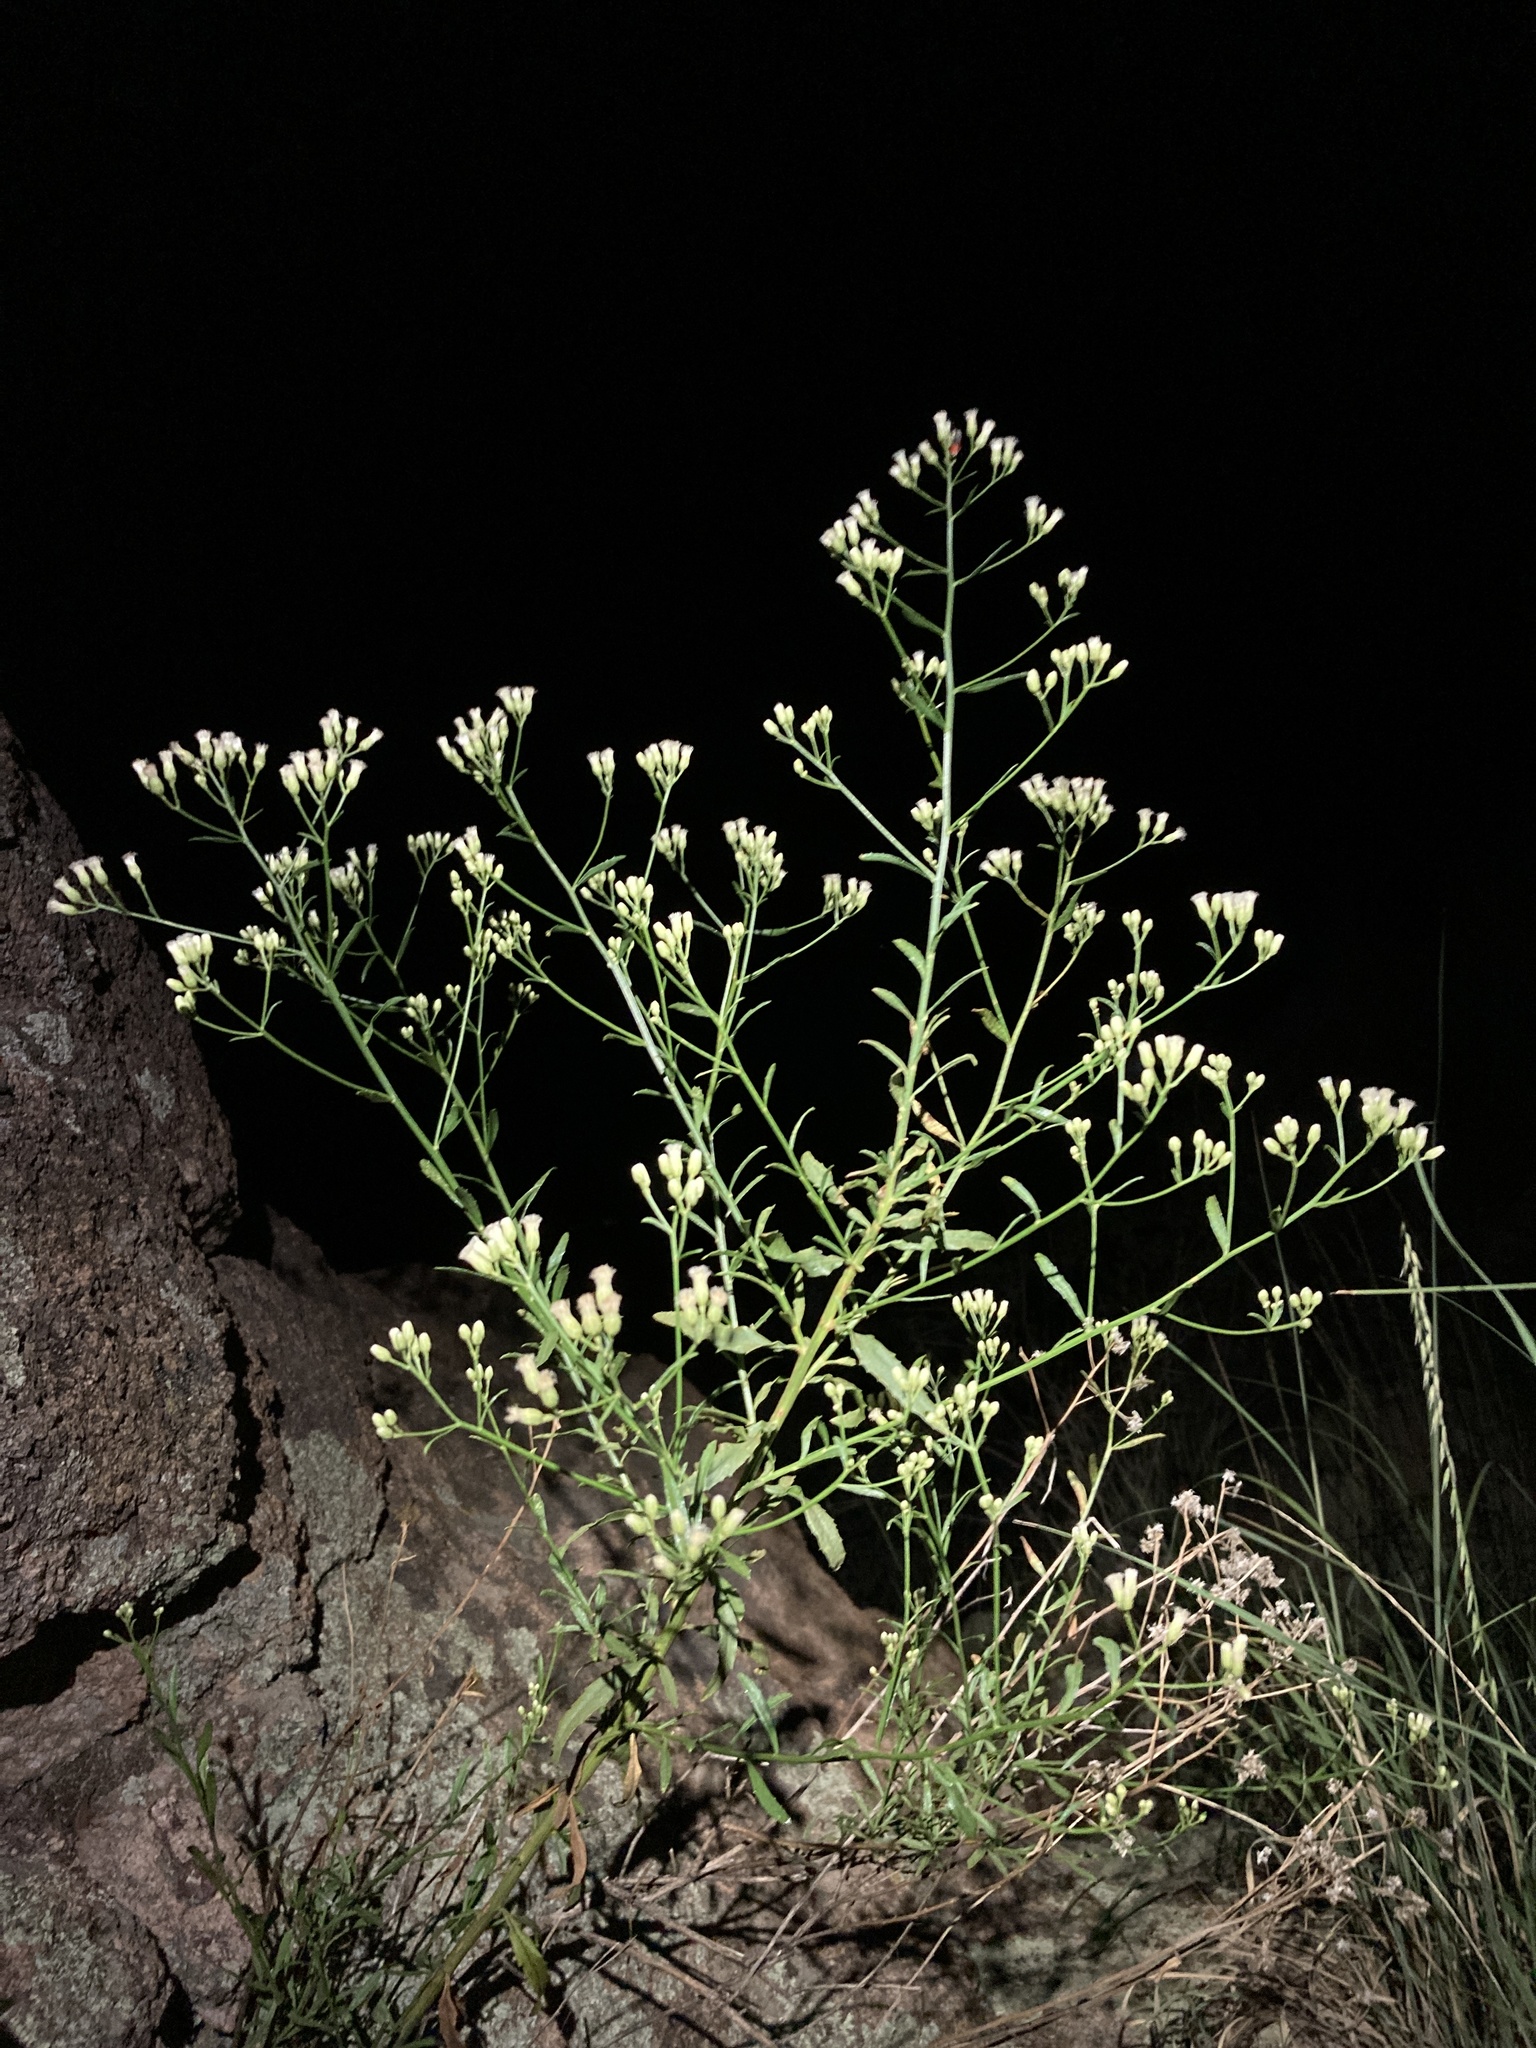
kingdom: Plantae
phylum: Tracheophyta
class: Magnoliopsida
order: Asterales
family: Asteraceae
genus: Baccharis
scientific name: Baccharis thesioides
